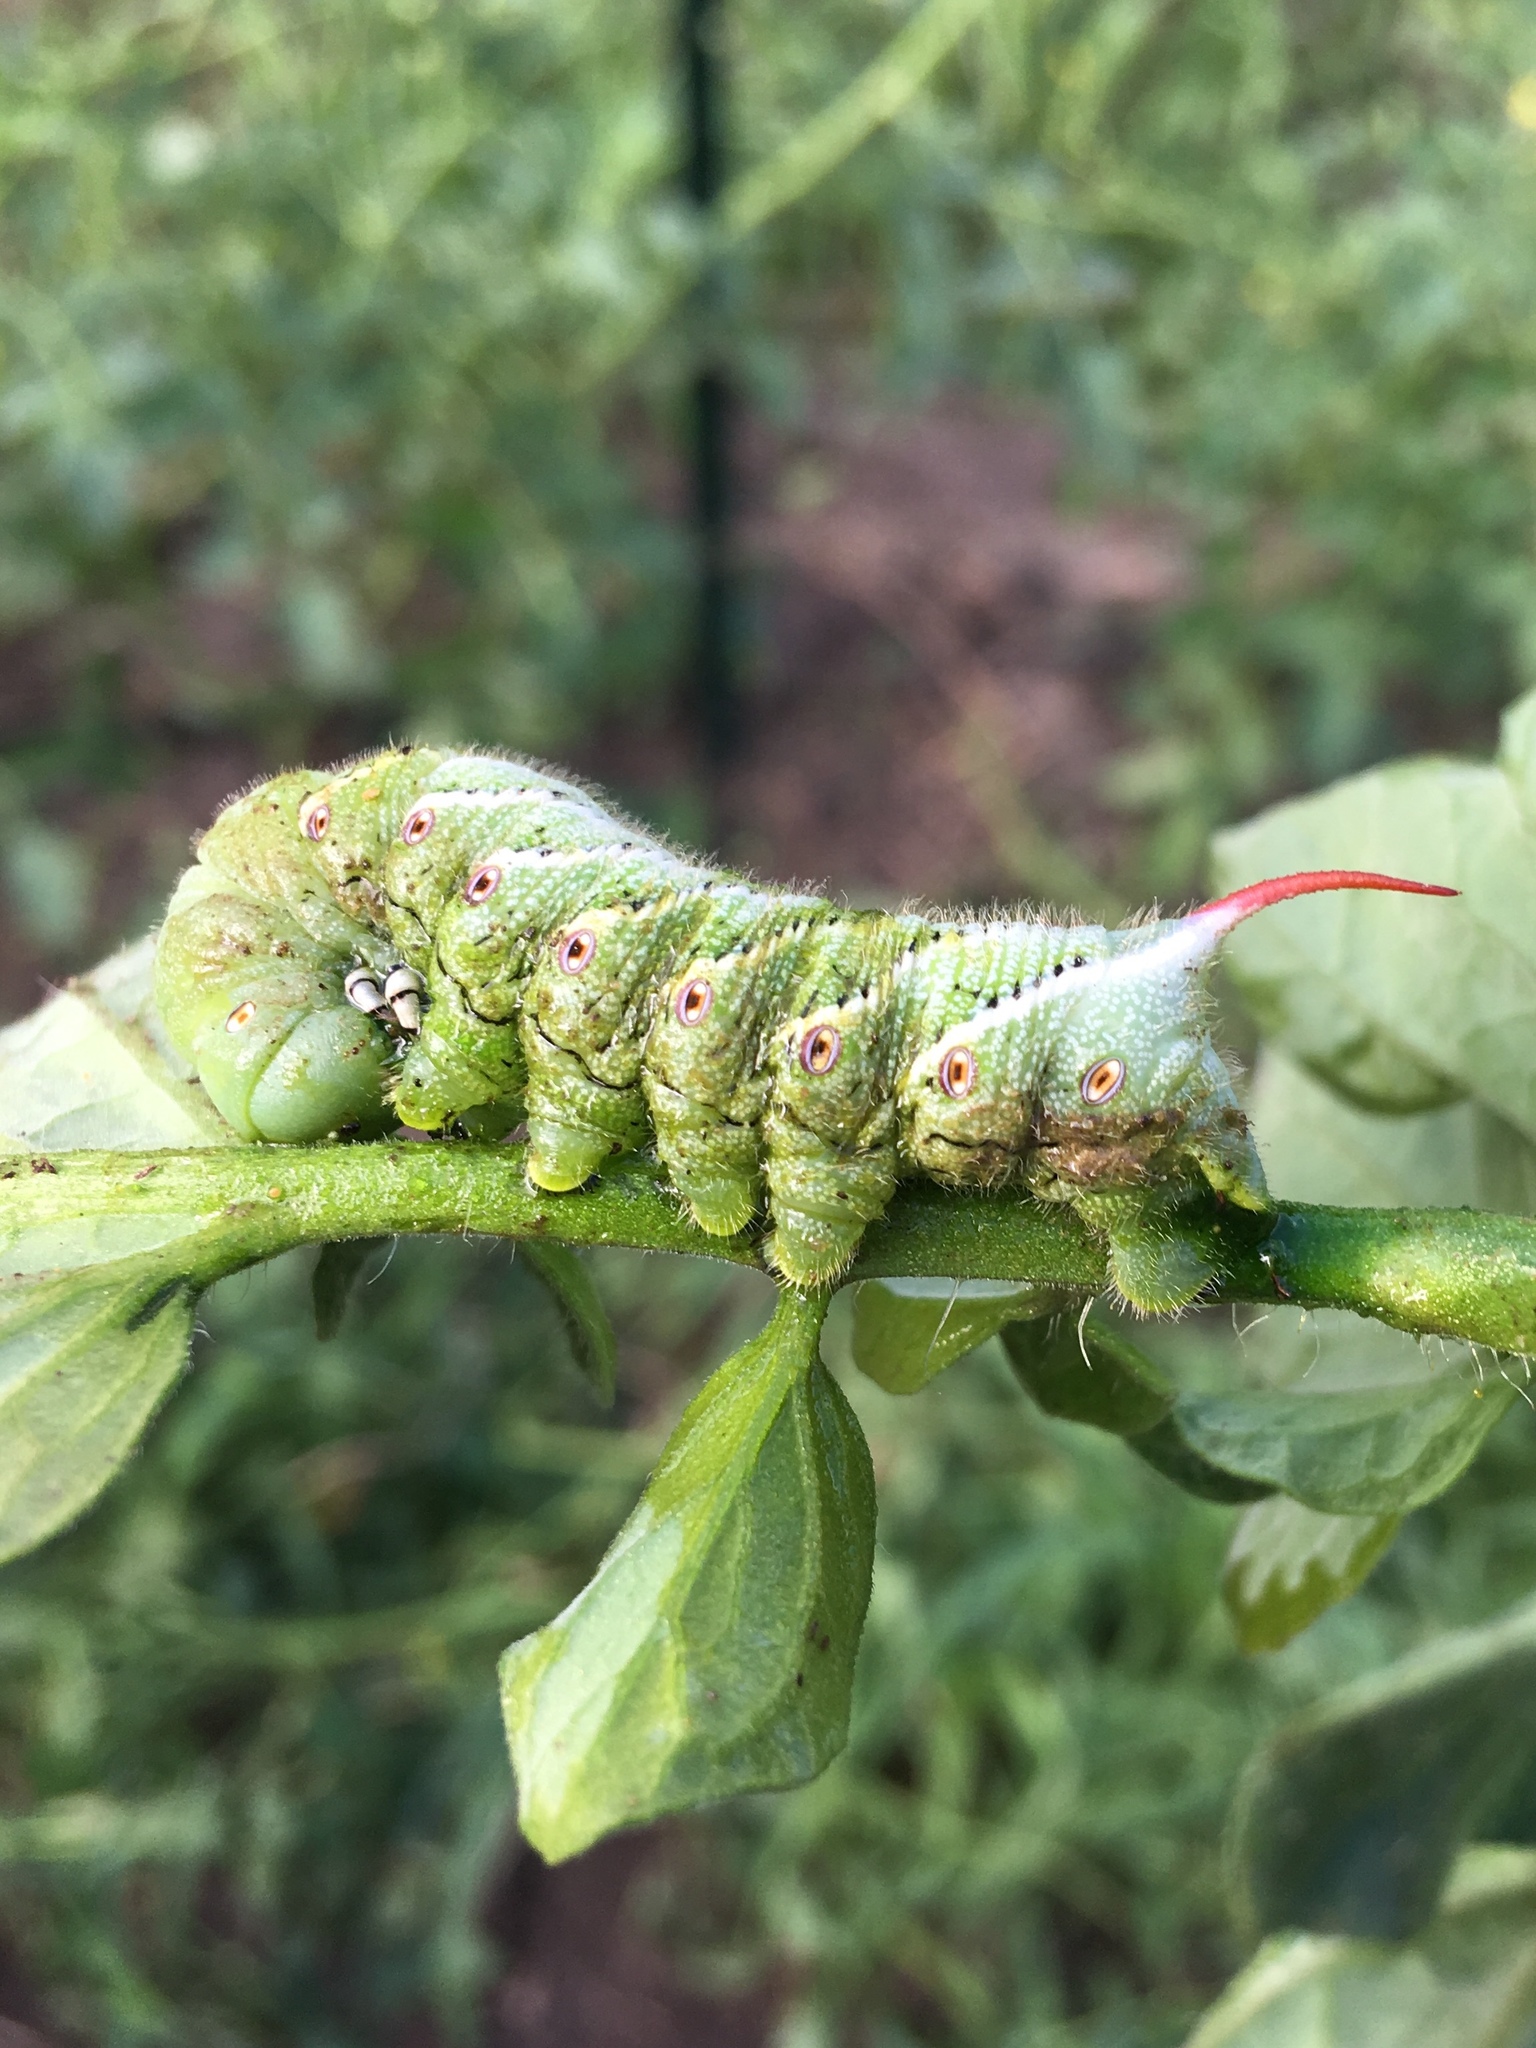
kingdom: Animalia
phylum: Arthropoda
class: Insecta
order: Lepidoptera
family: Sphingidae
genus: Manduca
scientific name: Manduca sexta
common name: Carolina sphinx
